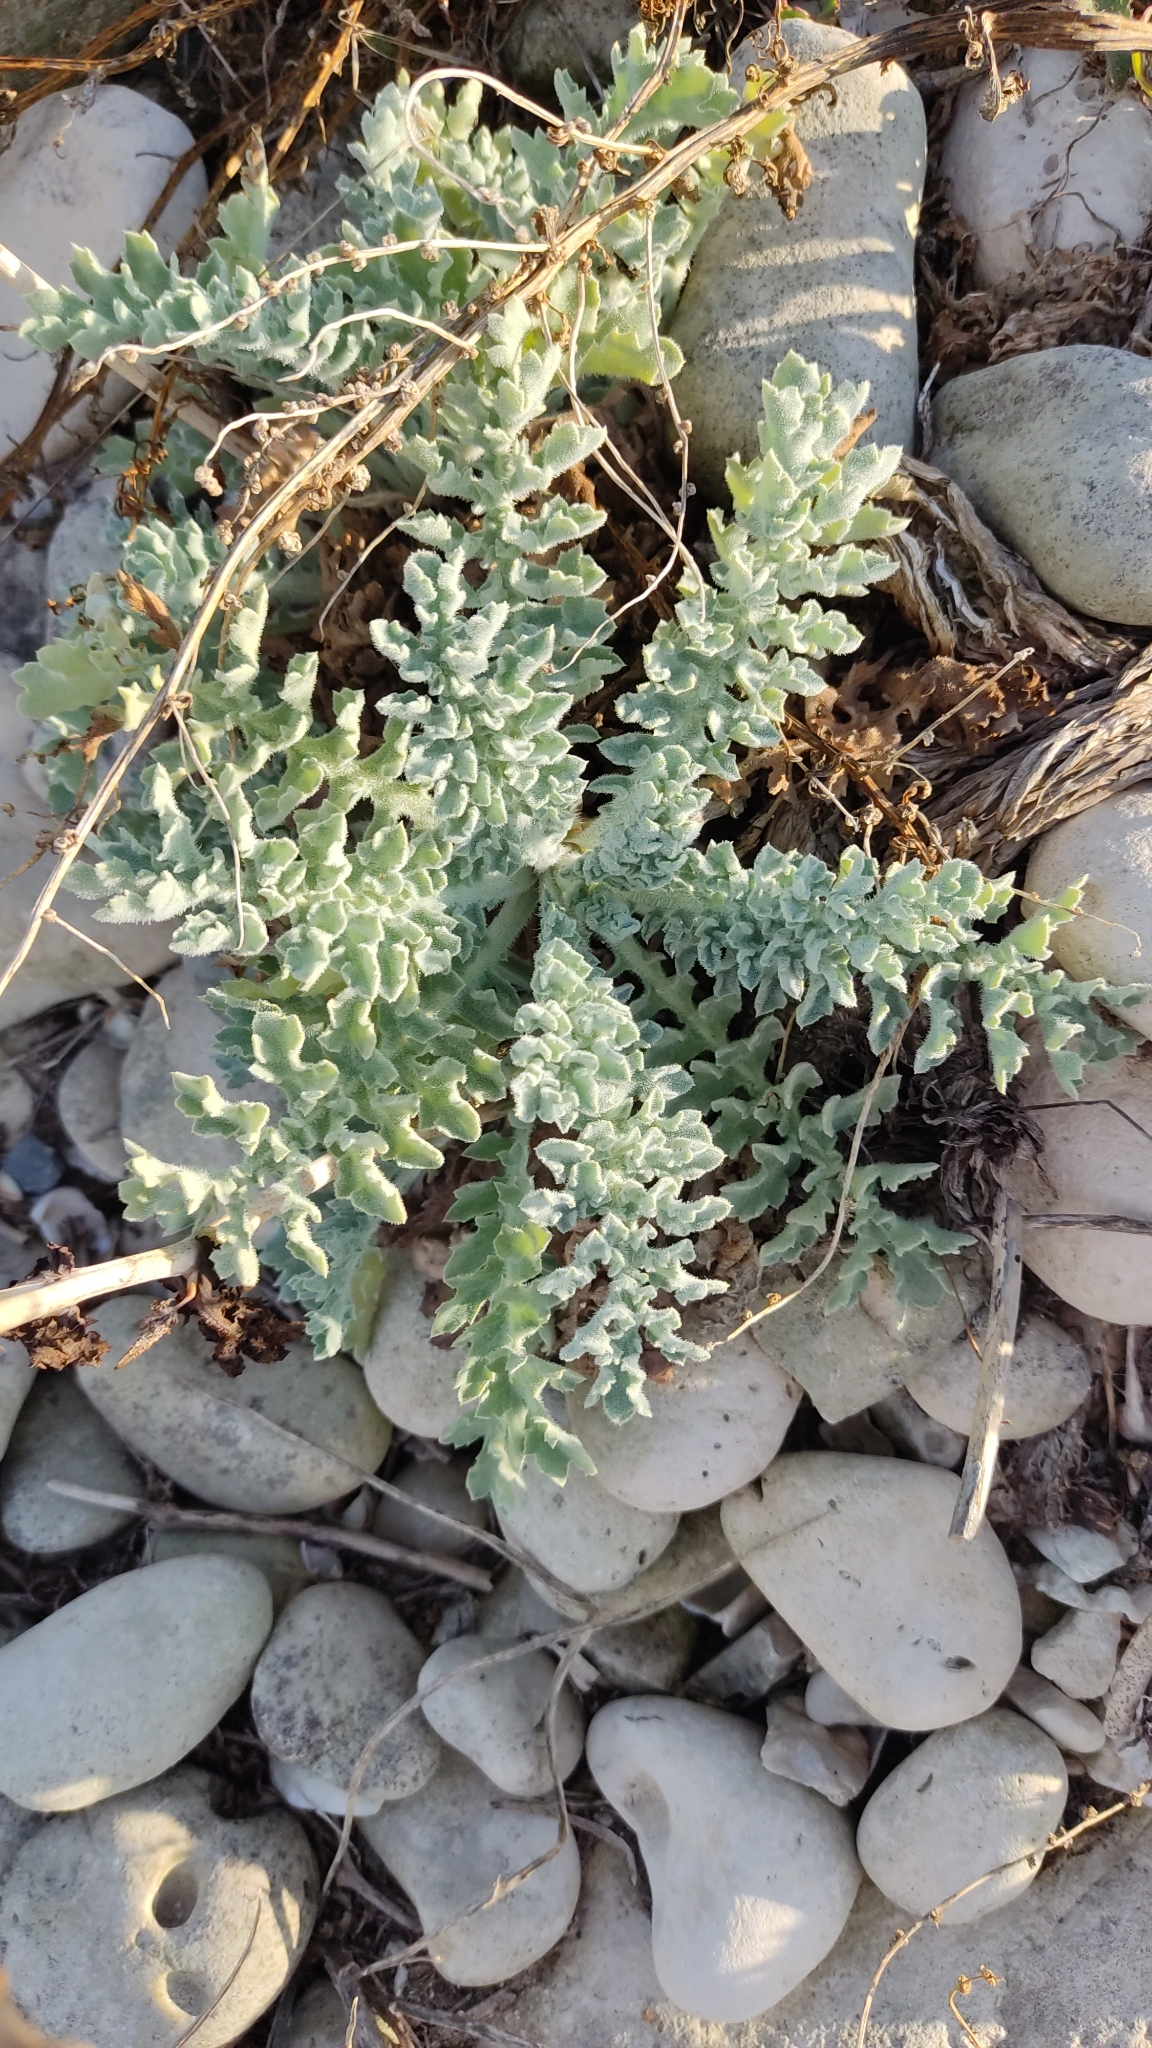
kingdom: Plantae
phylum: Tracheophyta
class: Magnoliopsida
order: Ranunculales
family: Papaveraceae
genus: Glaucium
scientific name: Glaucium flavum
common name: Yellow horned-poppy
